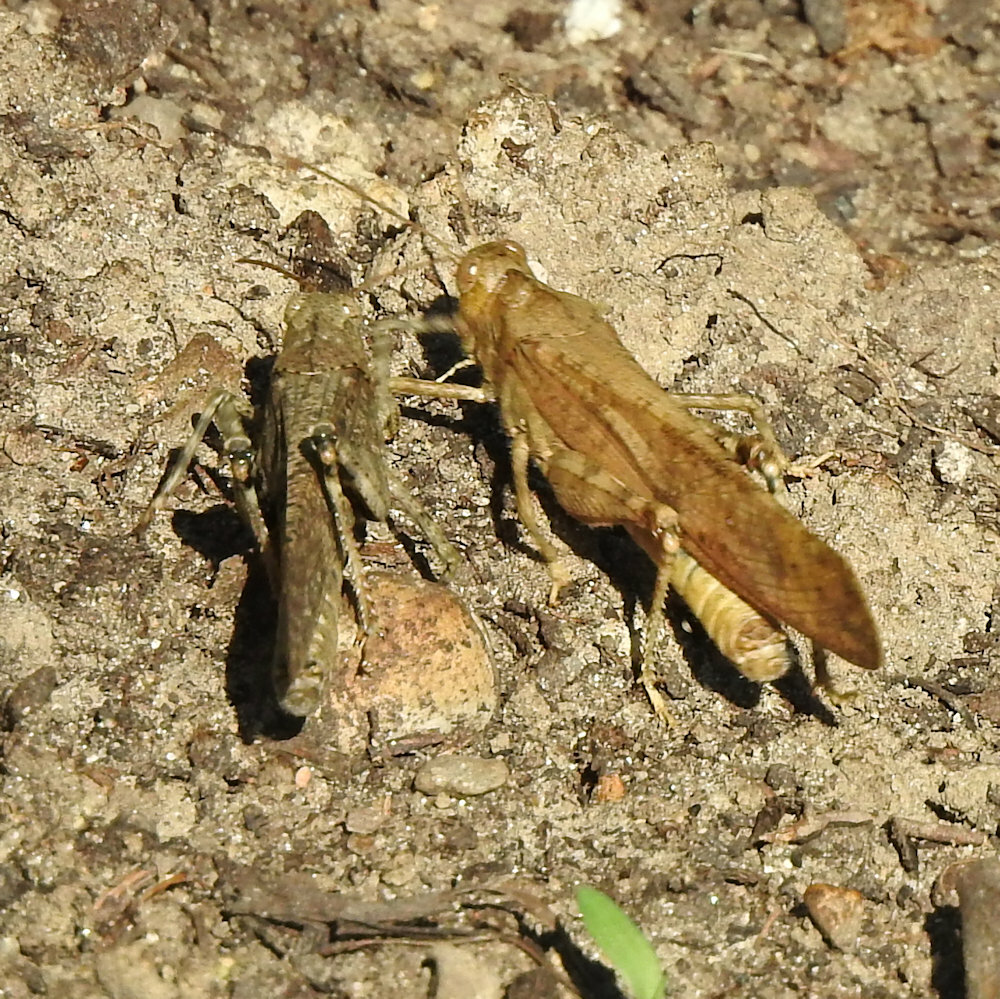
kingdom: Animalia
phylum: Arthropoda
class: Insecta
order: Orthoptera
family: Acrididae
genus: Dissosteira
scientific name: Dissosteira carolina
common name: Carolina grasshopper
